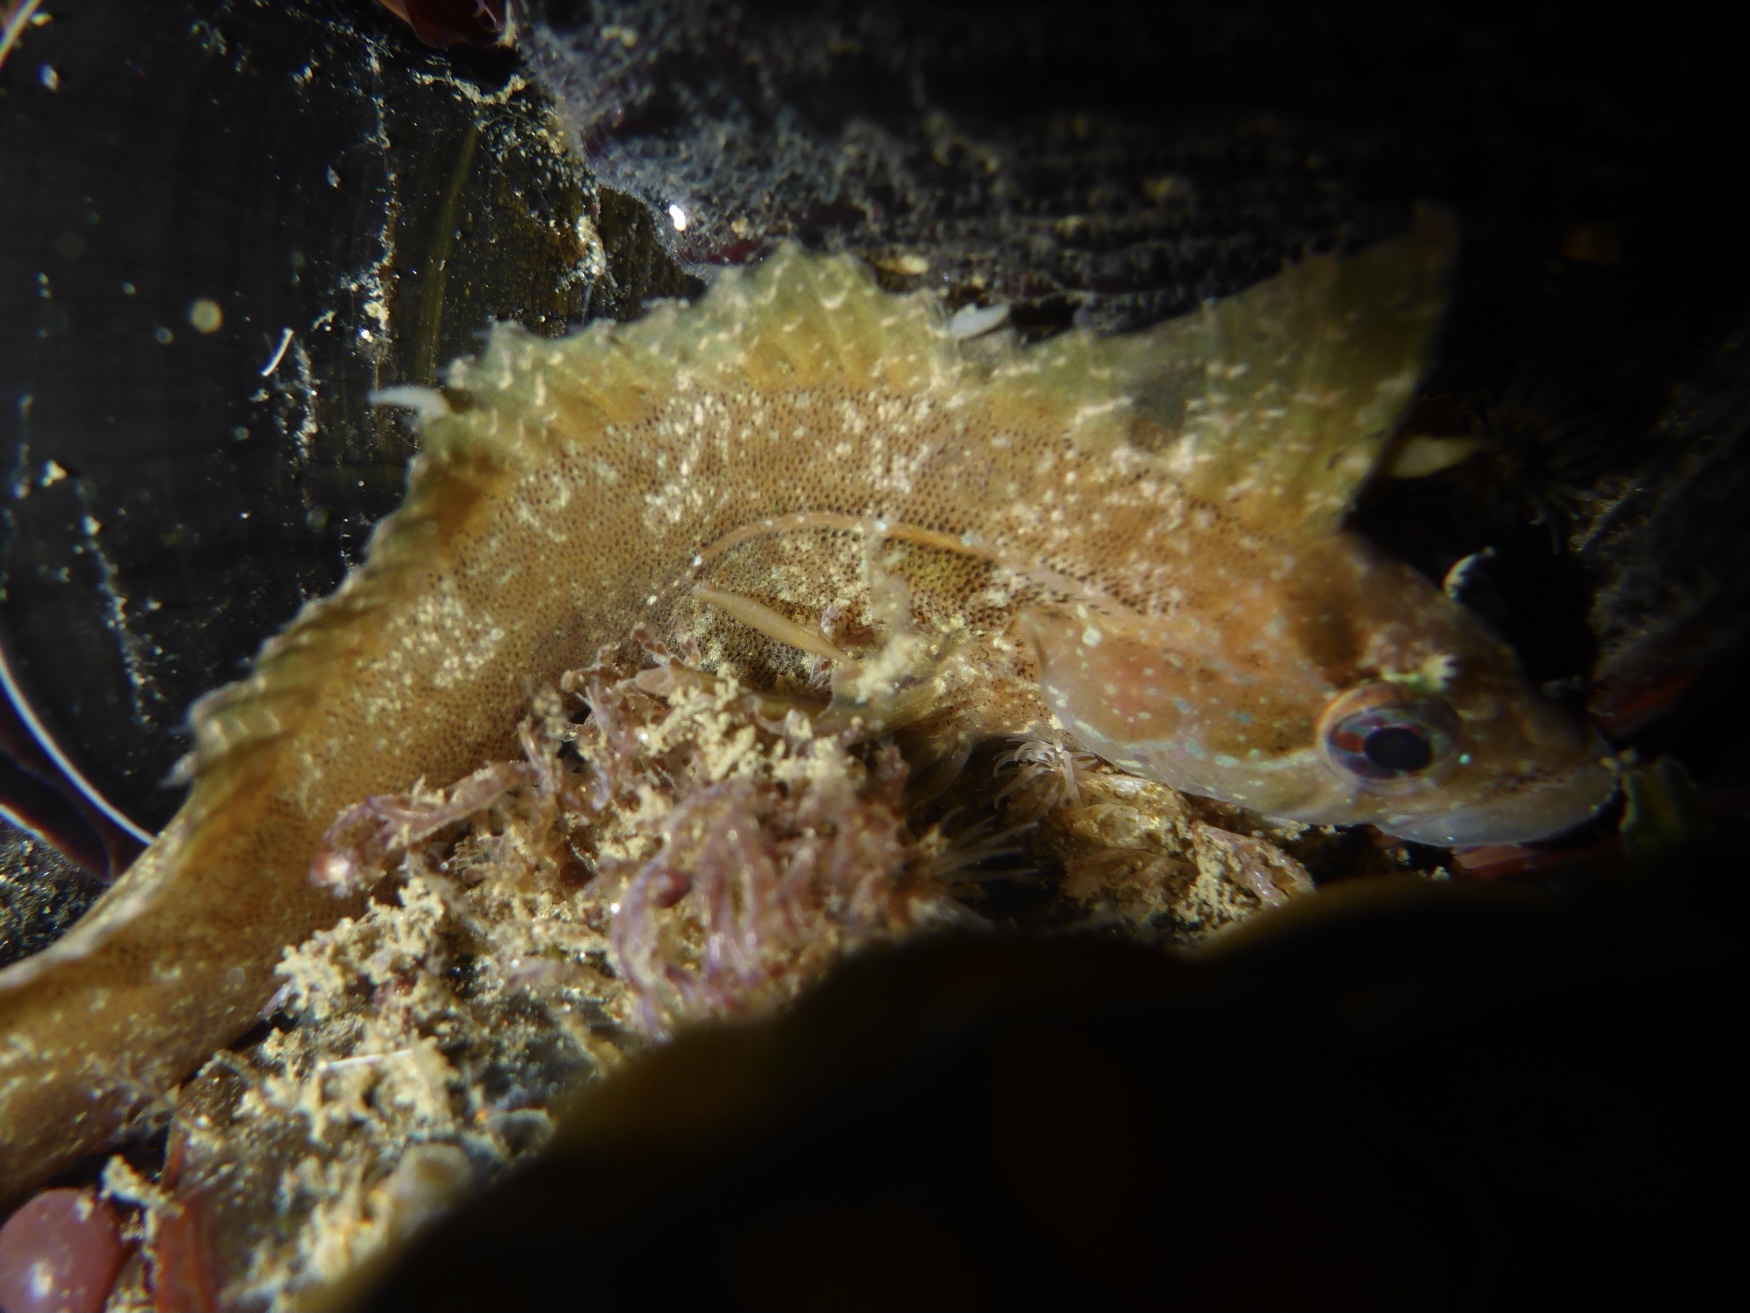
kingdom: Animalia
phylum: Chordata
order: Perciformes
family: Clinidae
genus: Gibbonsia
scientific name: Gibbonsia metzi
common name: Striped kelpfish
